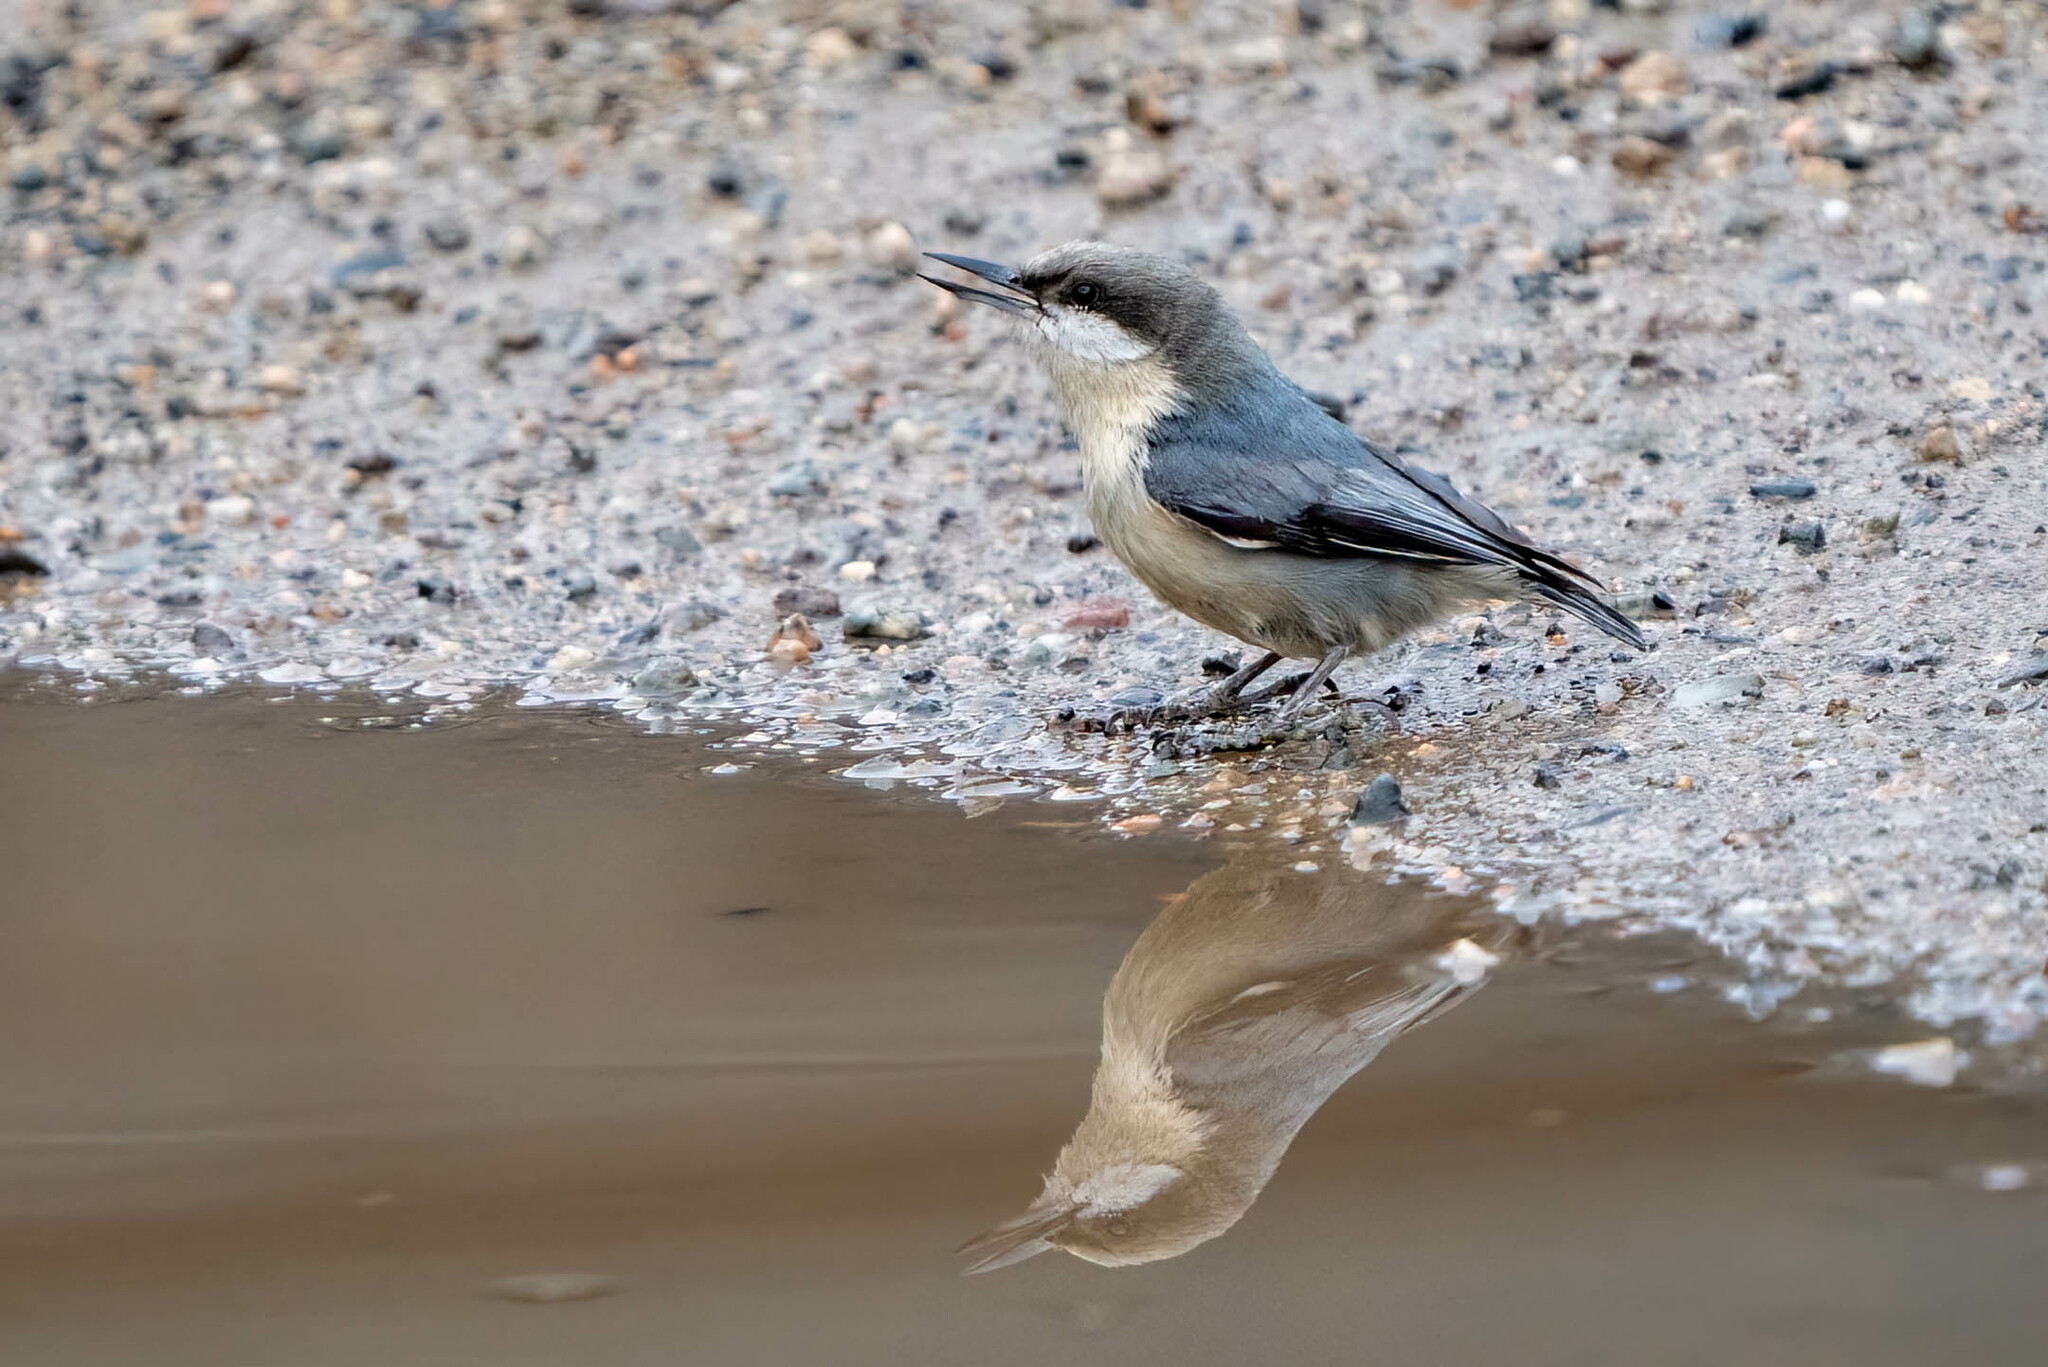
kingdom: Animalia
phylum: Chordata
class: Aves
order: Passeriformes
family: Sittidae
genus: Sitta
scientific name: Sitta pygmaea
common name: Pygmy nuthatch
